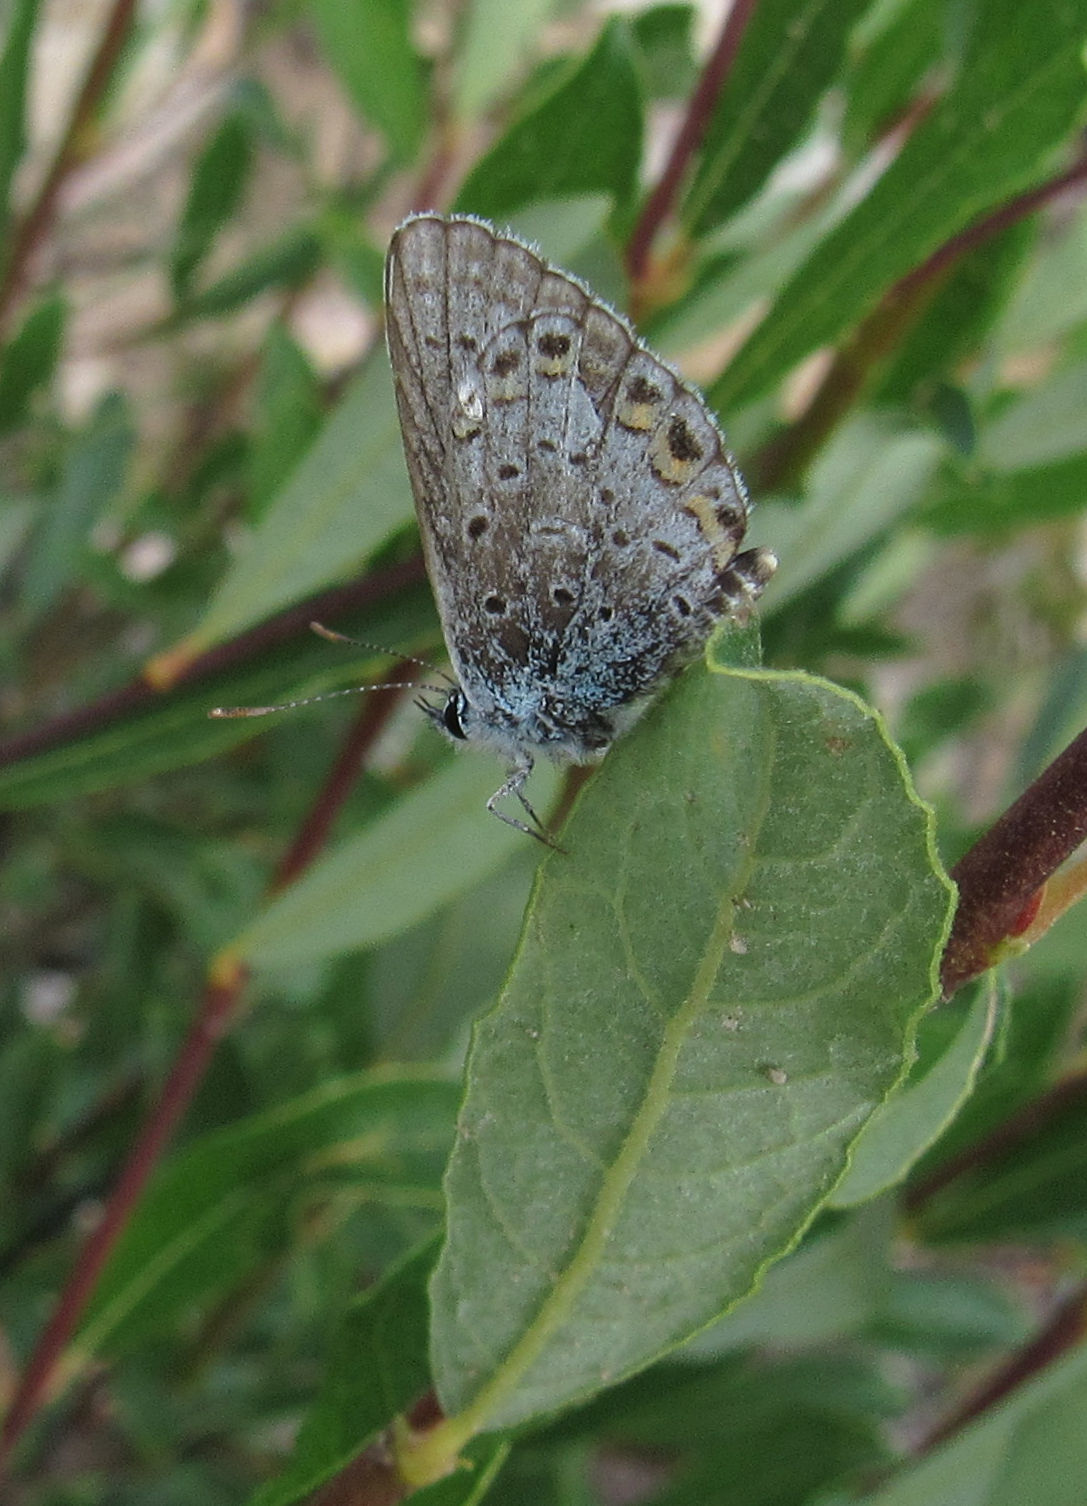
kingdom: Animalia
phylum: Arthropoda
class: Insecta
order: Lepidoptera
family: Lycaenidae
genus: Lycaeides
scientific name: Lycaeides idas
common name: Northern blue
